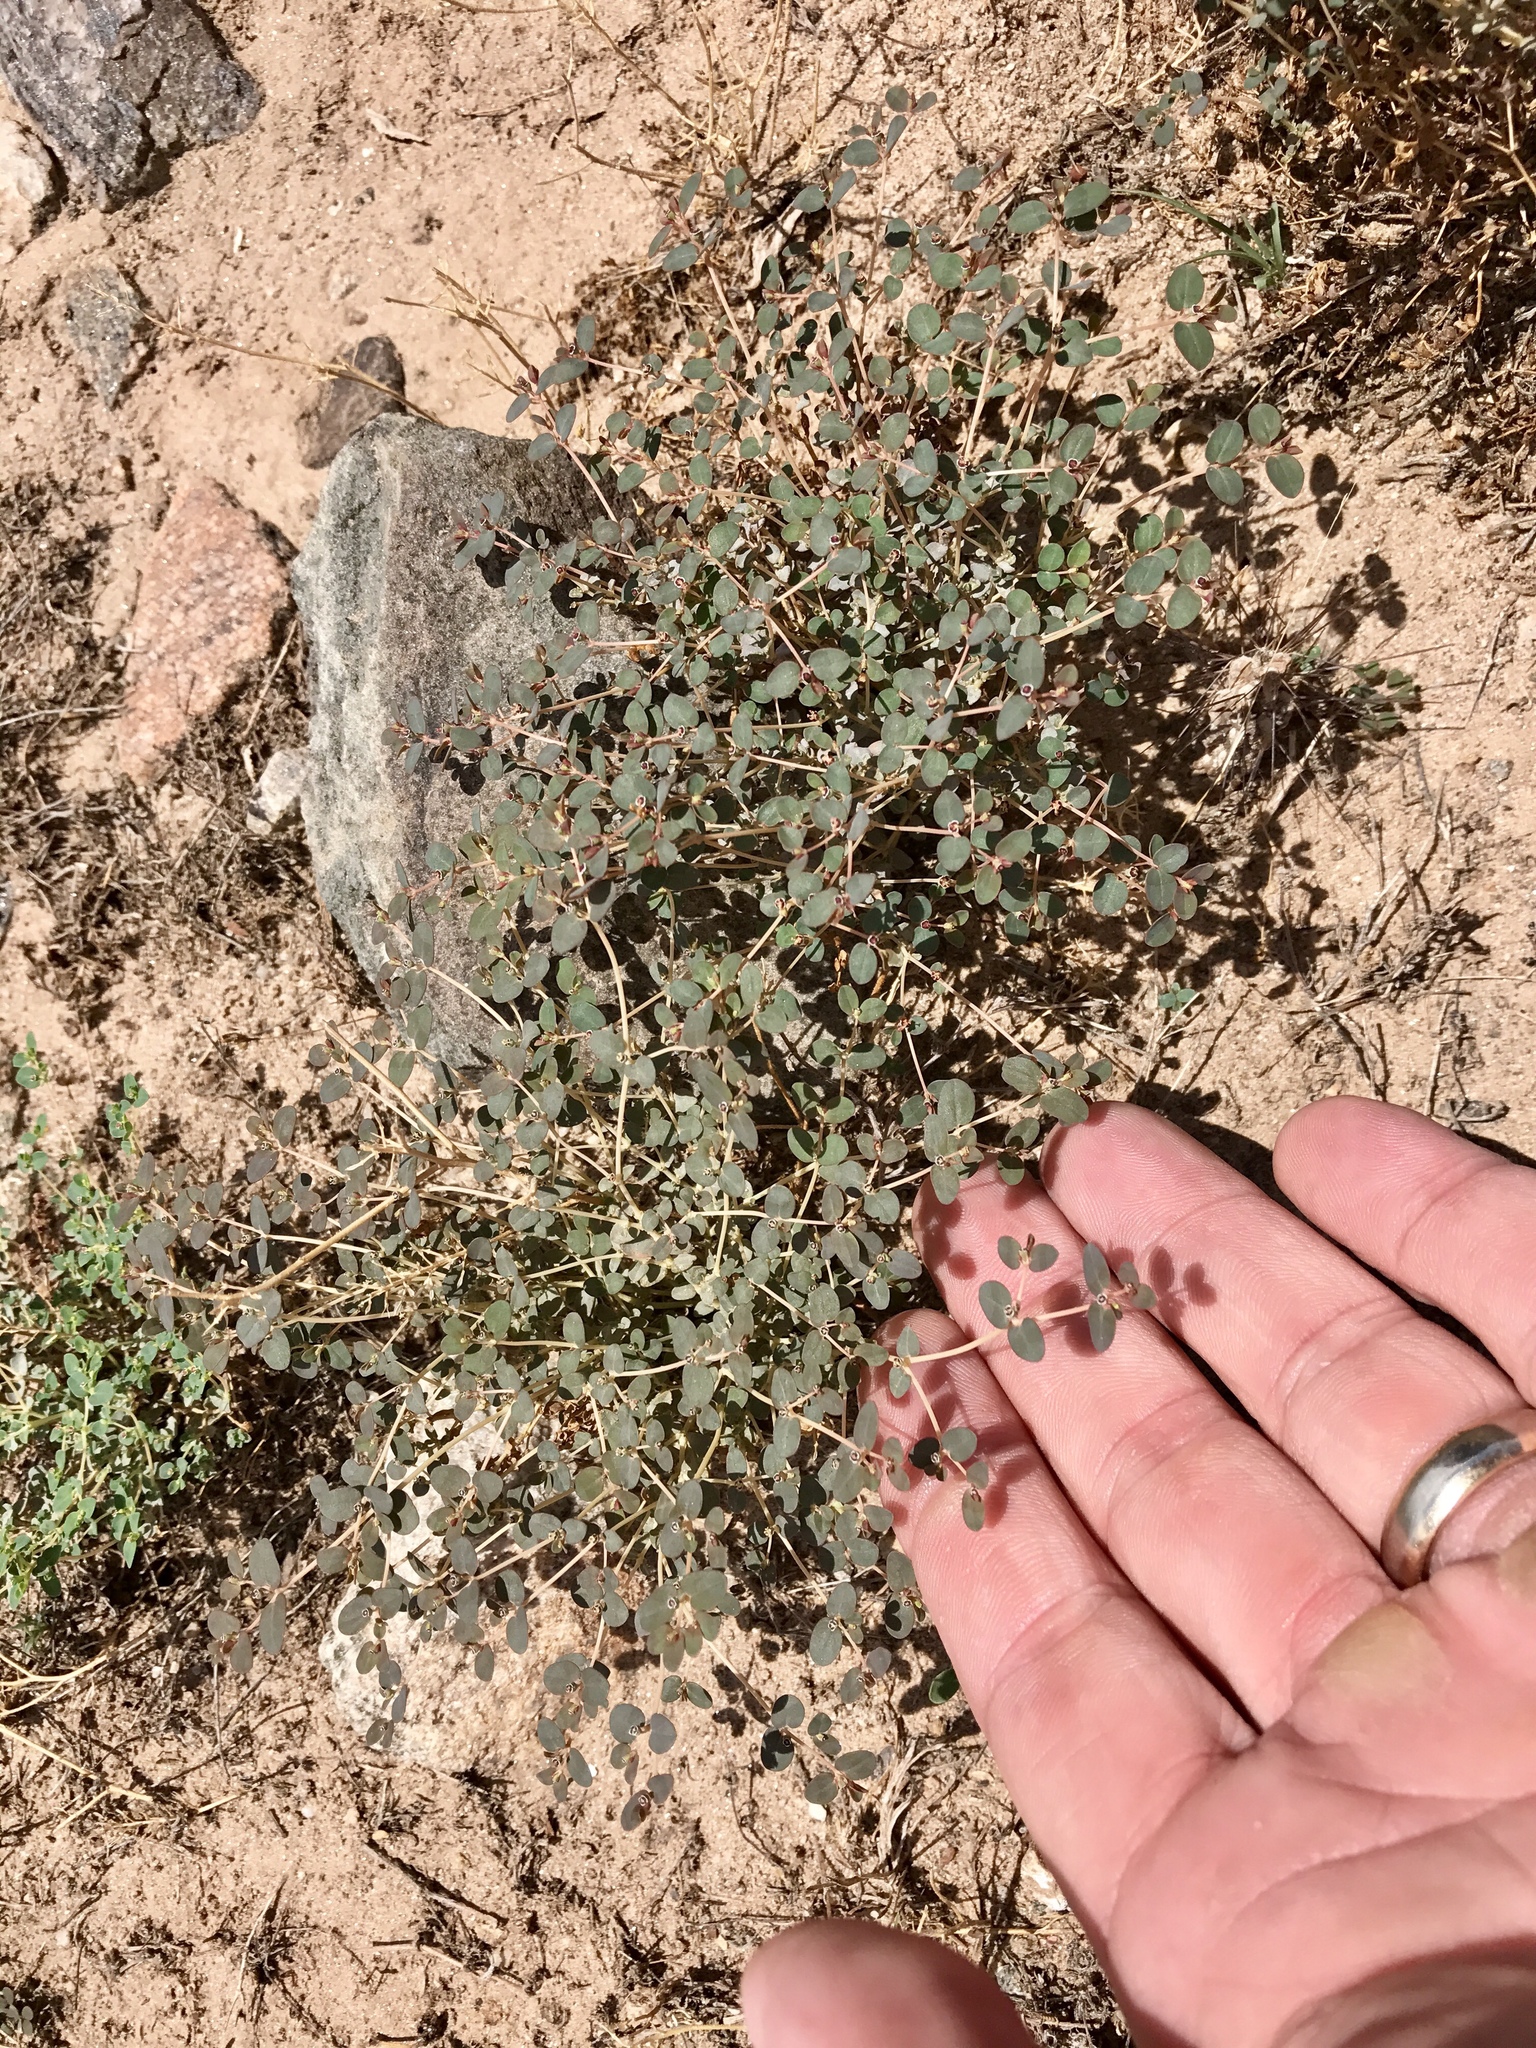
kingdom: Plantae
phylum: Tracheophyta
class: Magnoliopsida
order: Malpighiales
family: Euphorbiaceae
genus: Euphorbia
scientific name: Euphorbia polycarpa
